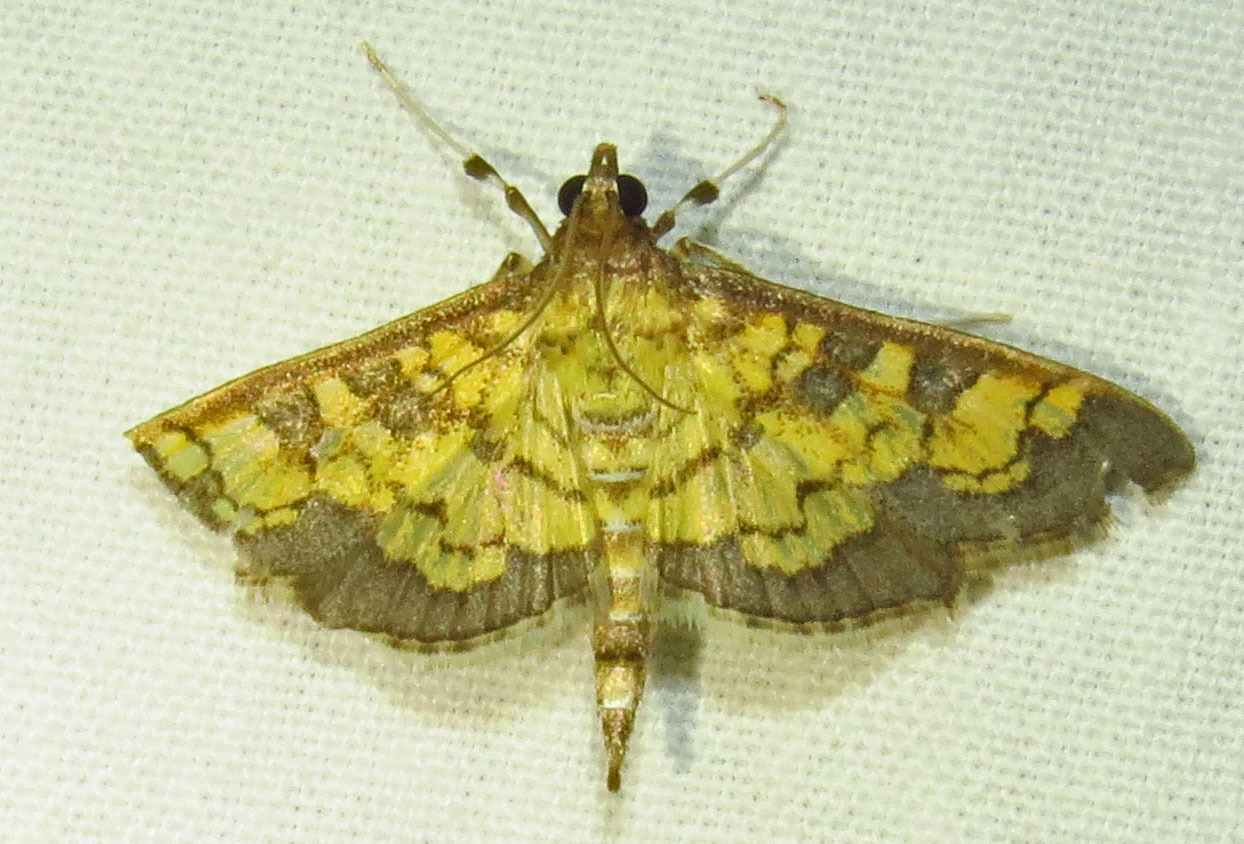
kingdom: Animalia
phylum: Arthropoda
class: Insecta
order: Lepidoptera
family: Crambidae
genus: Epipagis
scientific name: Epipagis adipaloides
